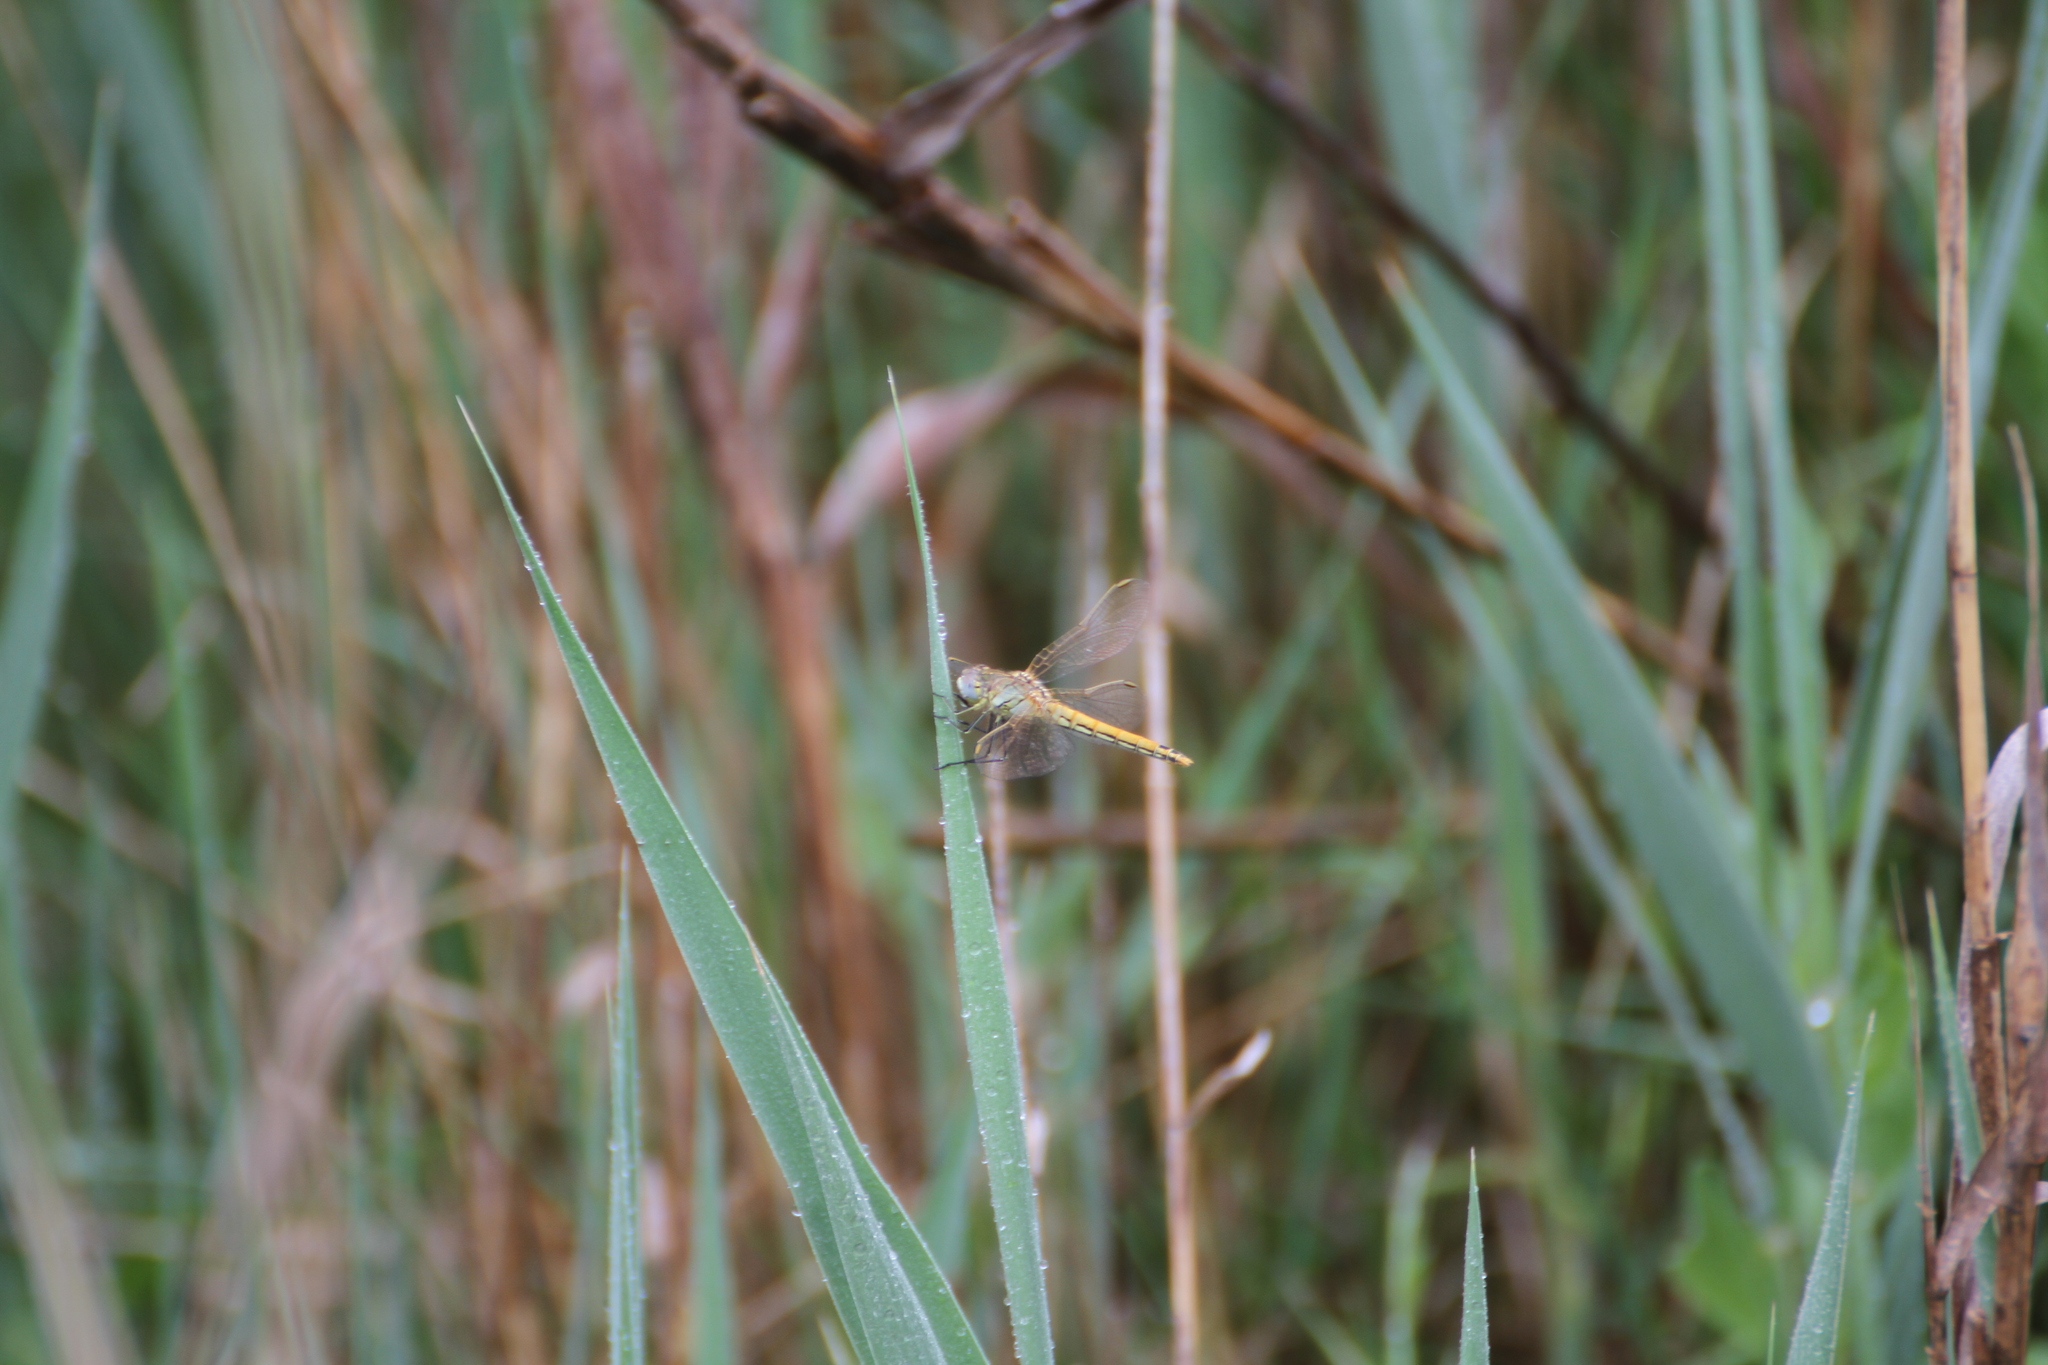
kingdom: Animalia
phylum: Arthropoda
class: Insecta
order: Odonata
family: Libellulidae
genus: Sympetrum
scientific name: Sympetrum fonscolombii
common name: Red-veined darter
